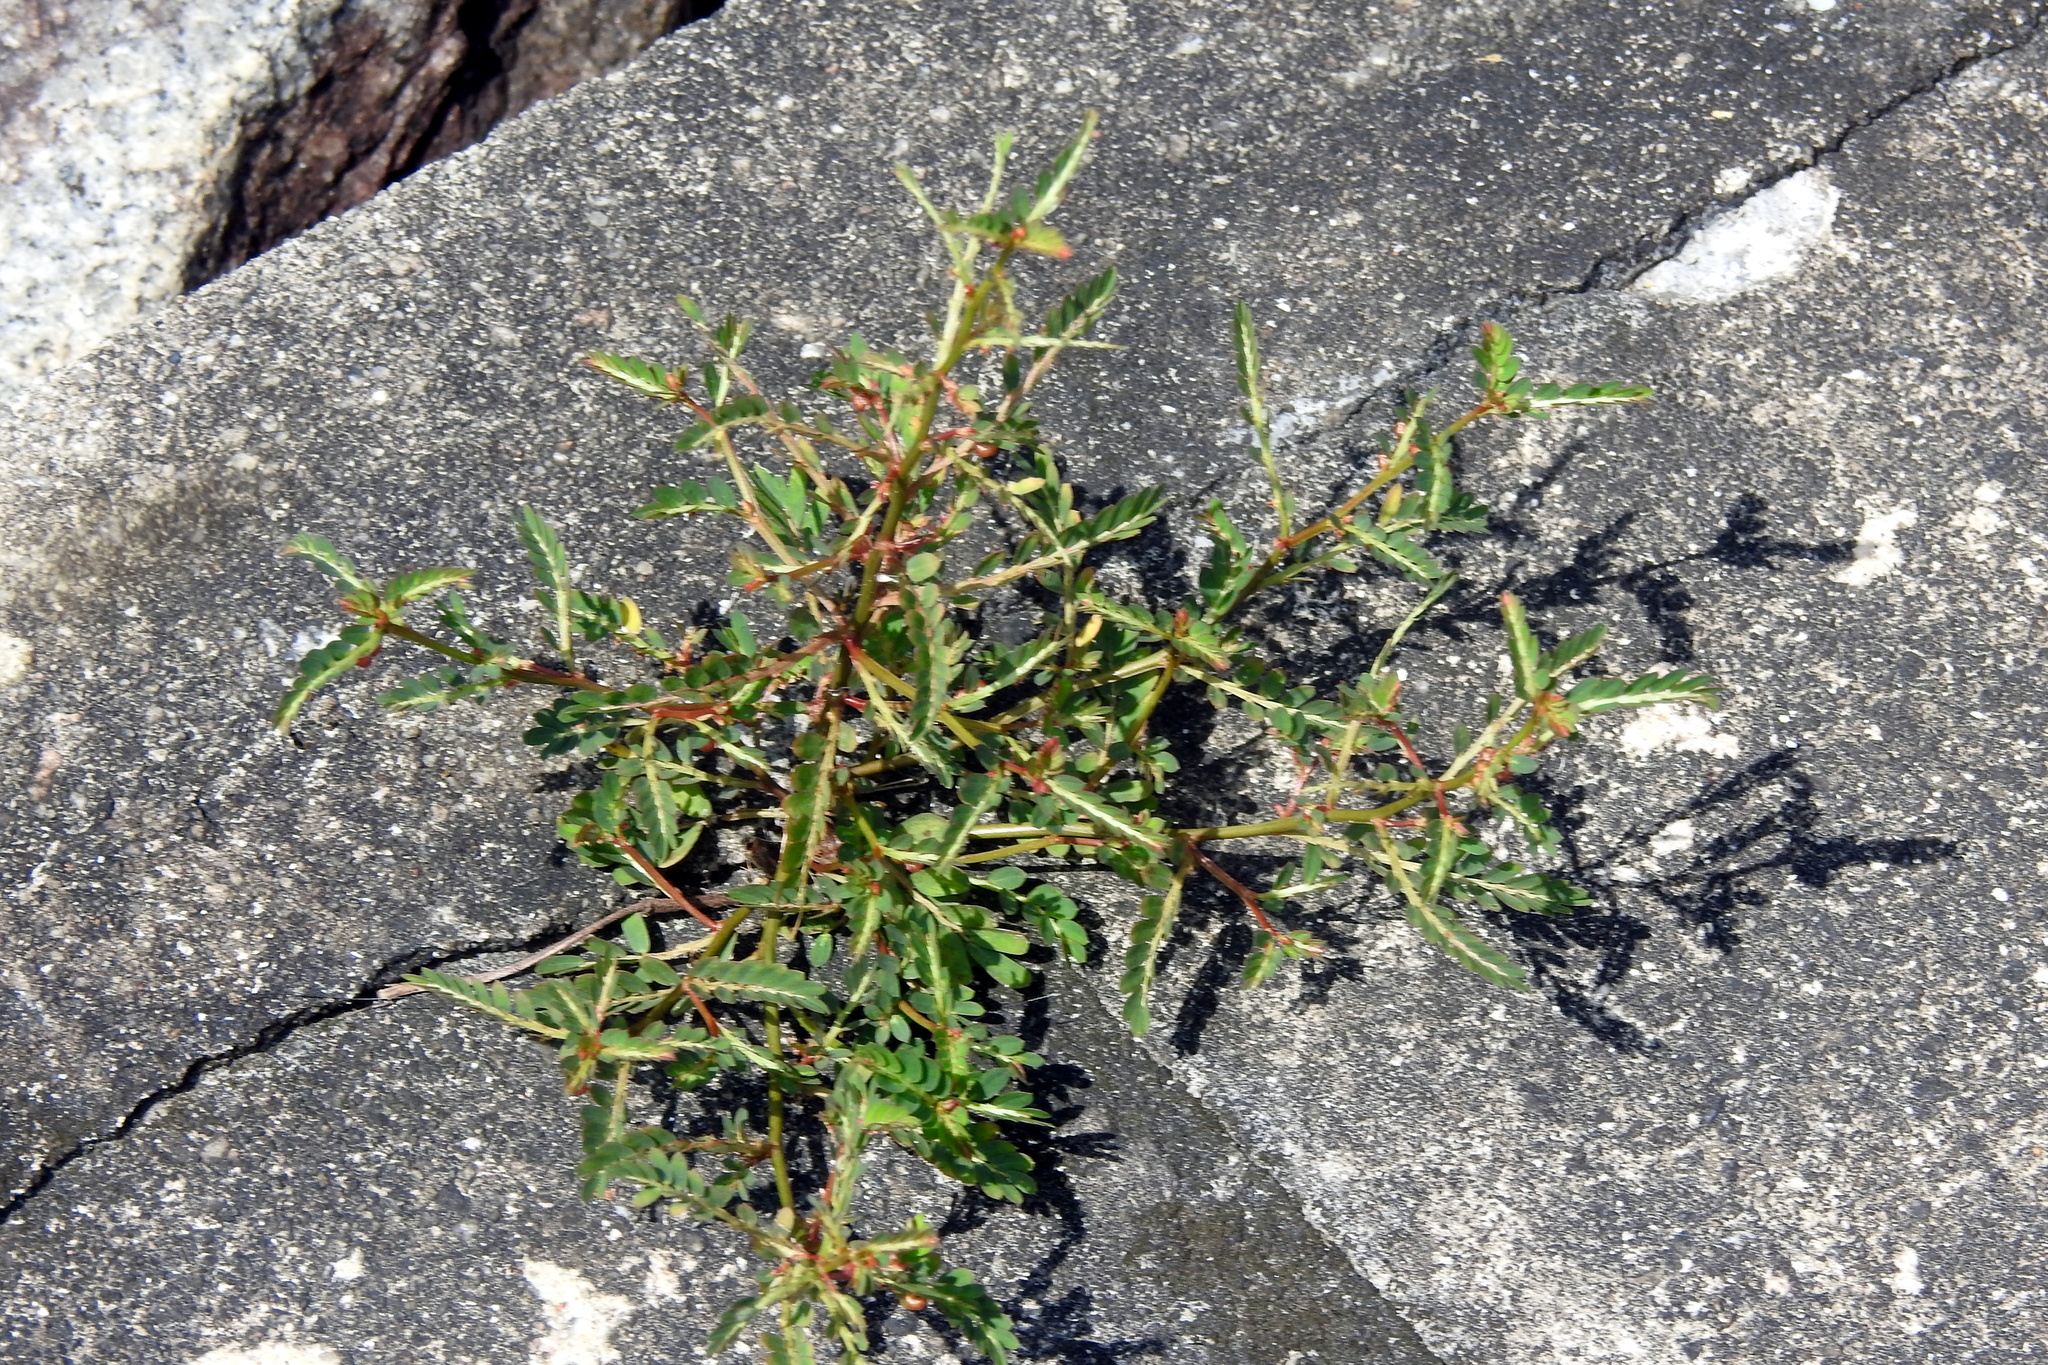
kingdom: Plantae
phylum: Tracheophyta
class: Magnoliopsida
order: Malpighiales
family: Phyllanthaceae
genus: Phyllanthus
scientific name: Phyllanthus urinaria
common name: Chamber bitter
